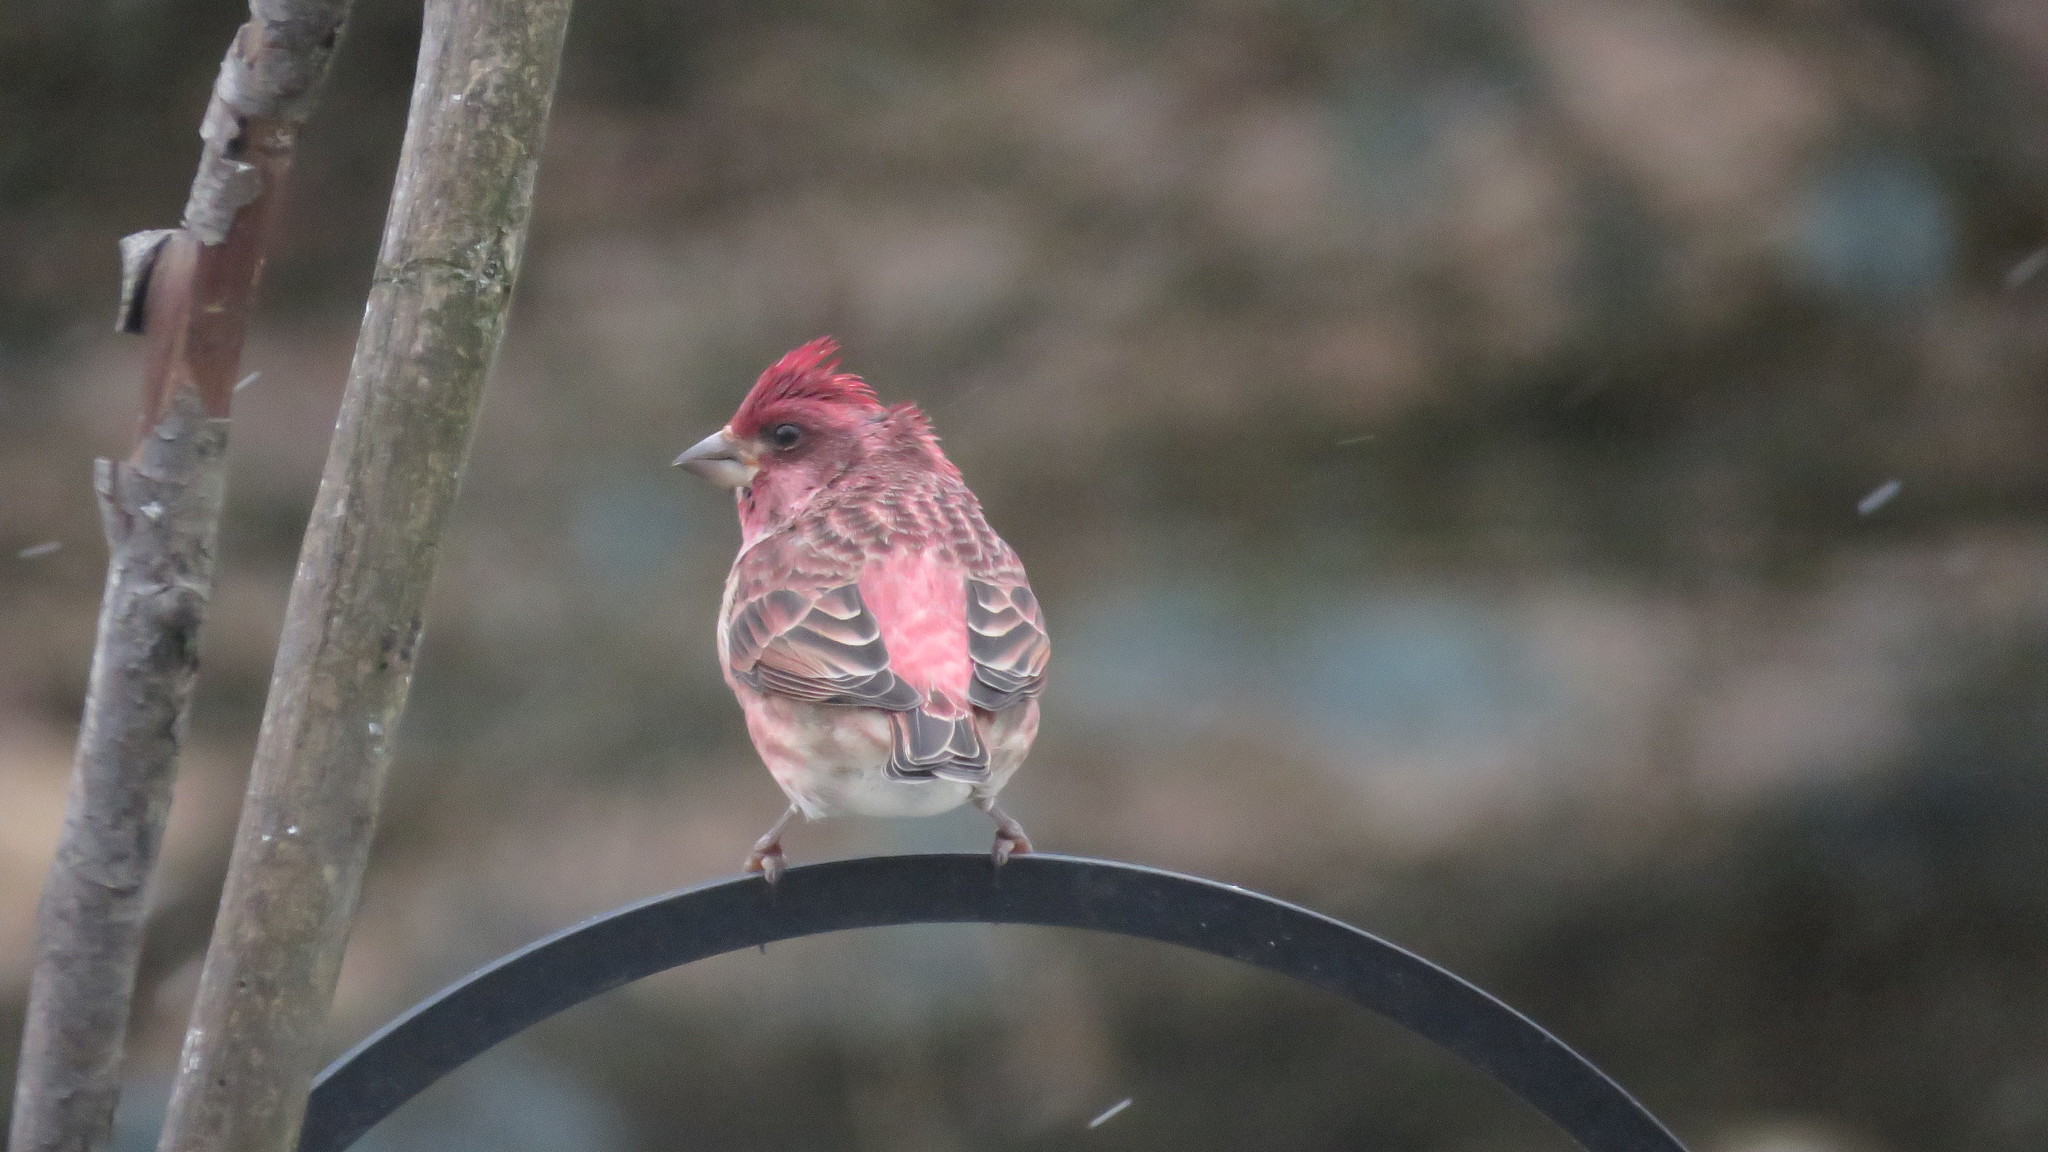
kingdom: Animalia
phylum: Chordata
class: Aves
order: Passeriformes
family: Fringillidae
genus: Haemorhous
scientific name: Haemorhous purpureus
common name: Purple finch
